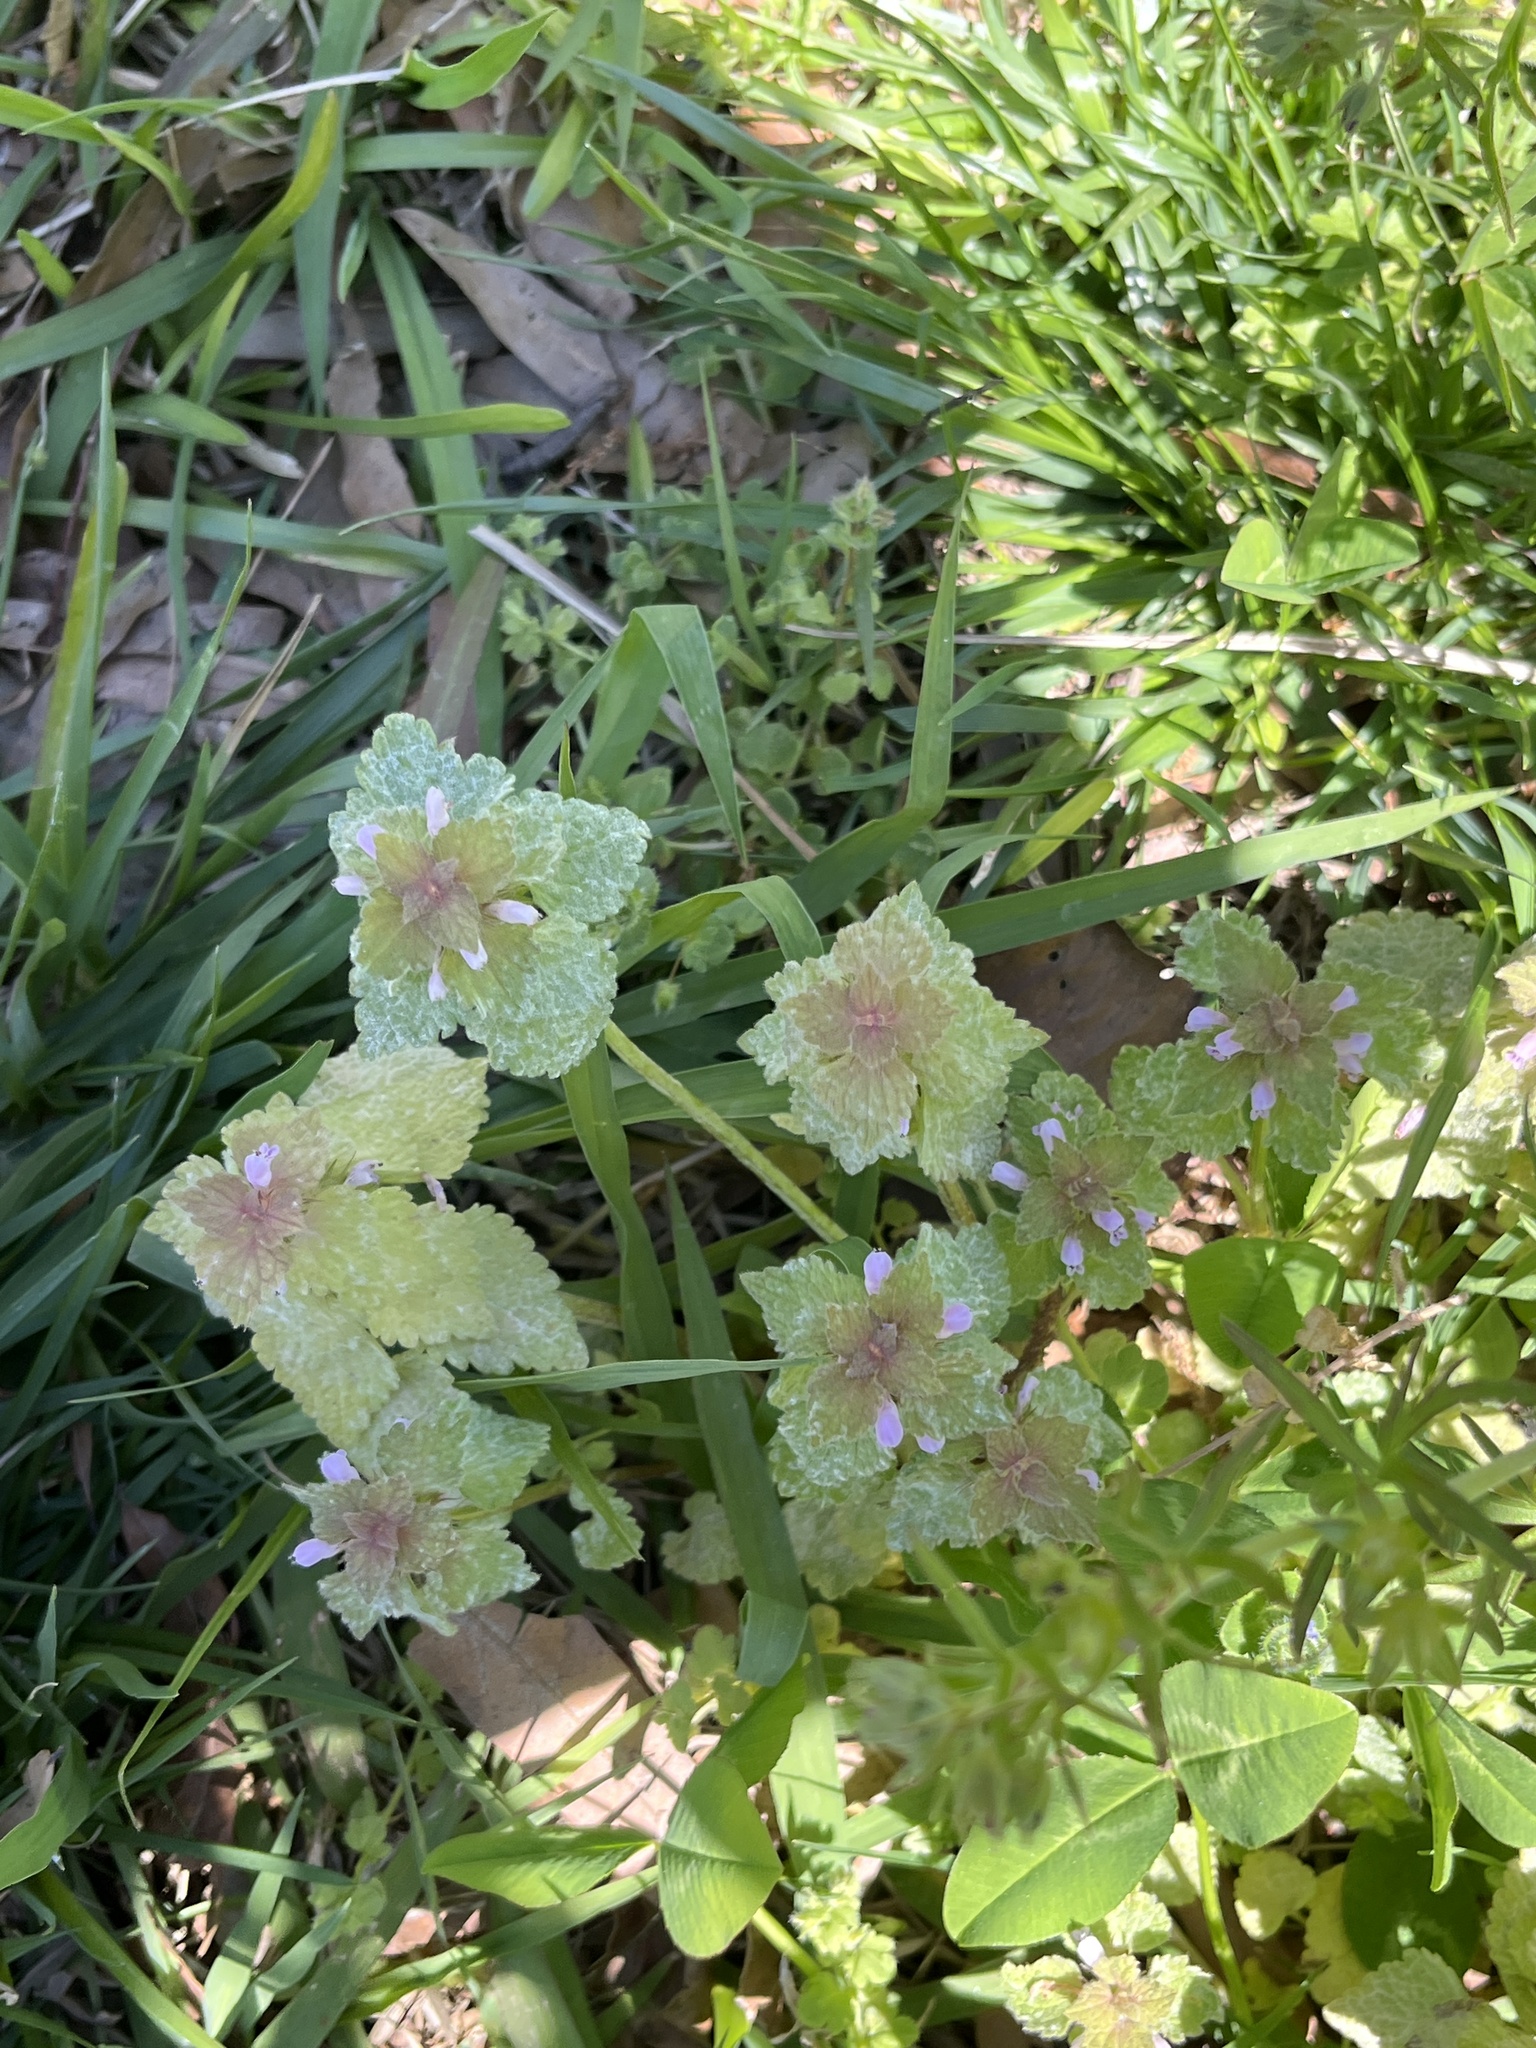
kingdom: Plantae
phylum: Tracheophyta
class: Magnoliopsida
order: Lamiales
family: Lamiaceae
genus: Lamium
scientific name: Lamium purpureum
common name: Red dead-nettle
